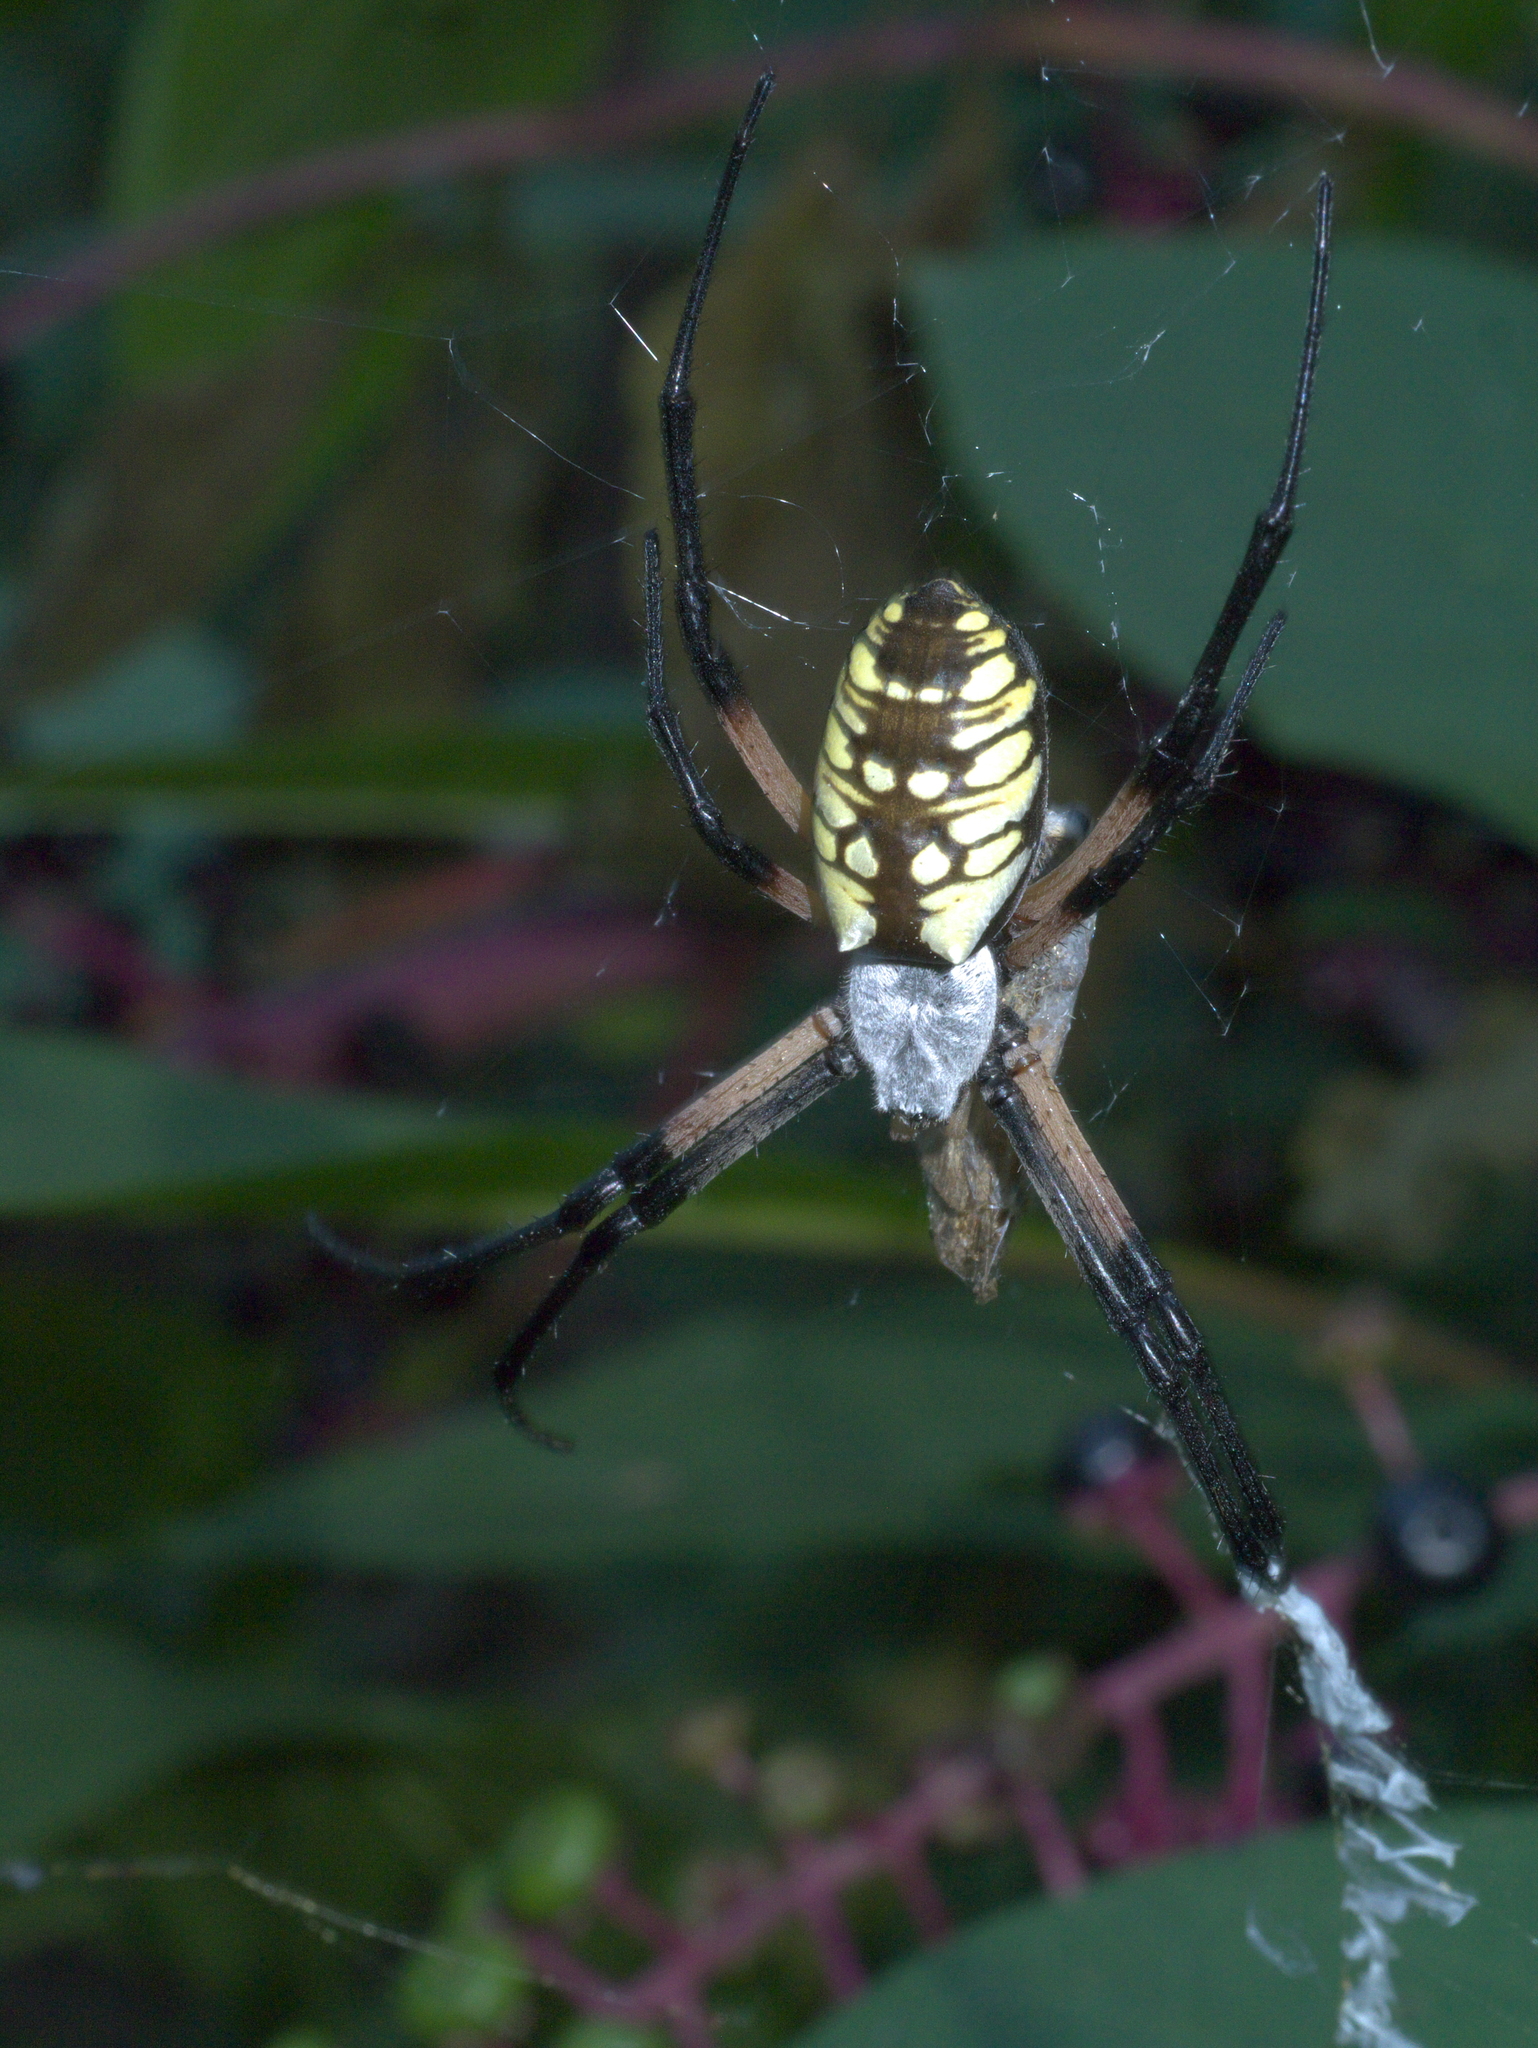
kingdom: Animalia
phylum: Arthropoda
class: Arachnida
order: Araneae
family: Araneidae
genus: Argiope
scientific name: Argiope aurantia
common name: Orb weavers
